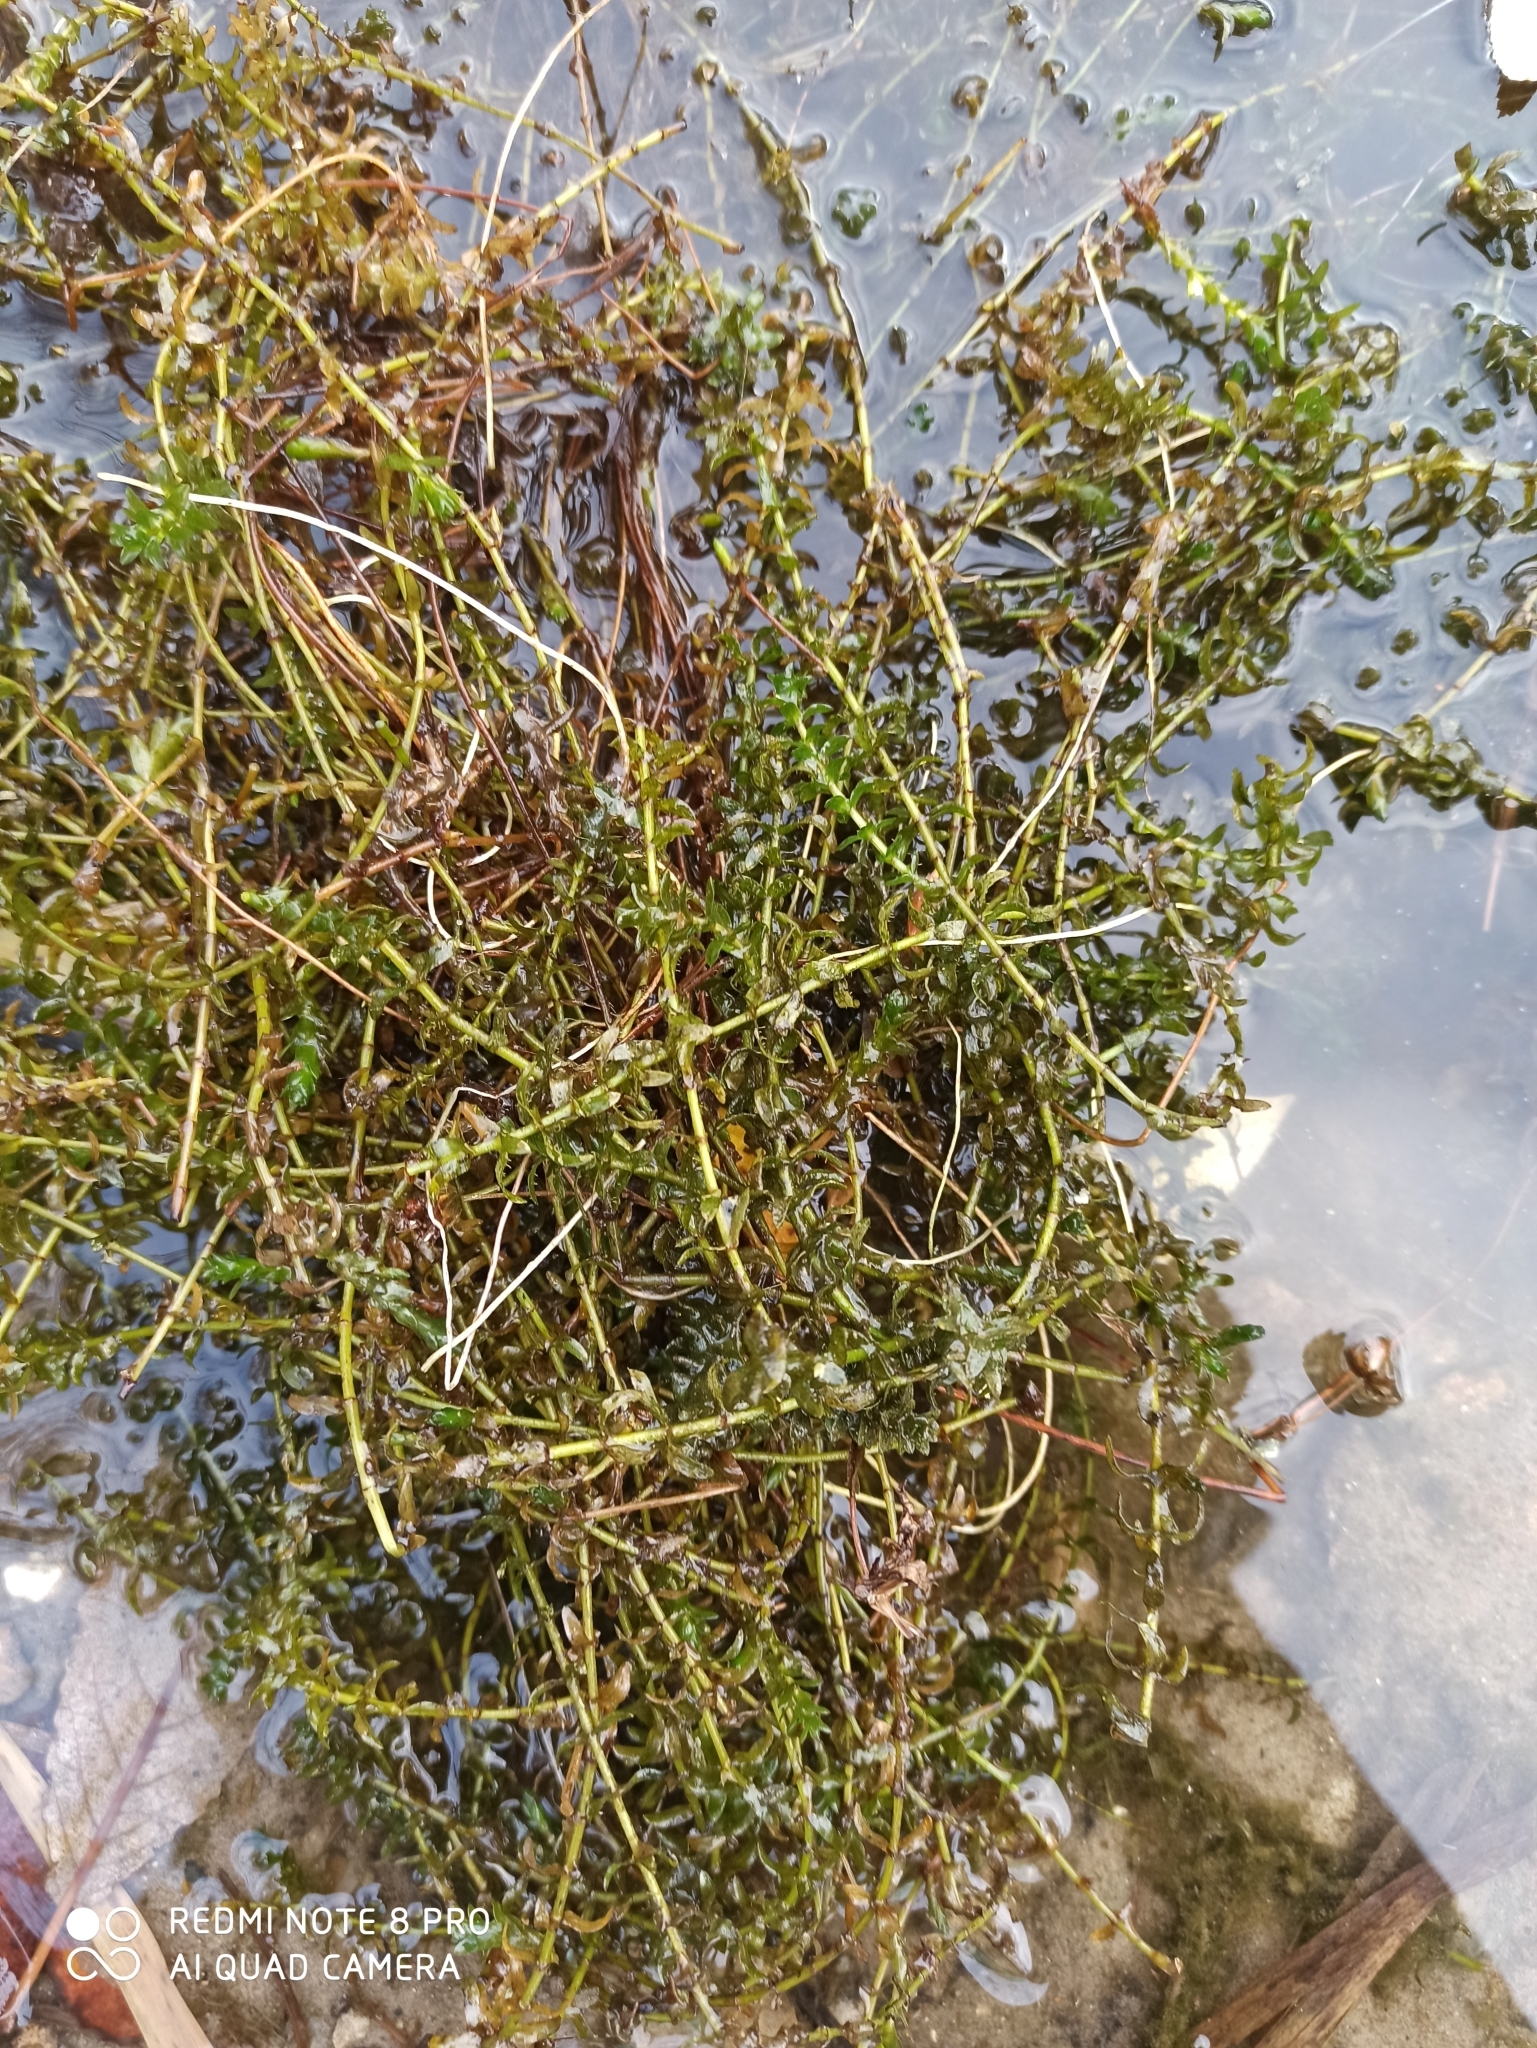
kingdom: Plantae
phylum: Tracheophyta
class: Liliopsida
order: Alismatales
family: Hydrocharitaceae
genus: Elodea
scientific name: Elodea canadensis
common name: Canadian waterweed
